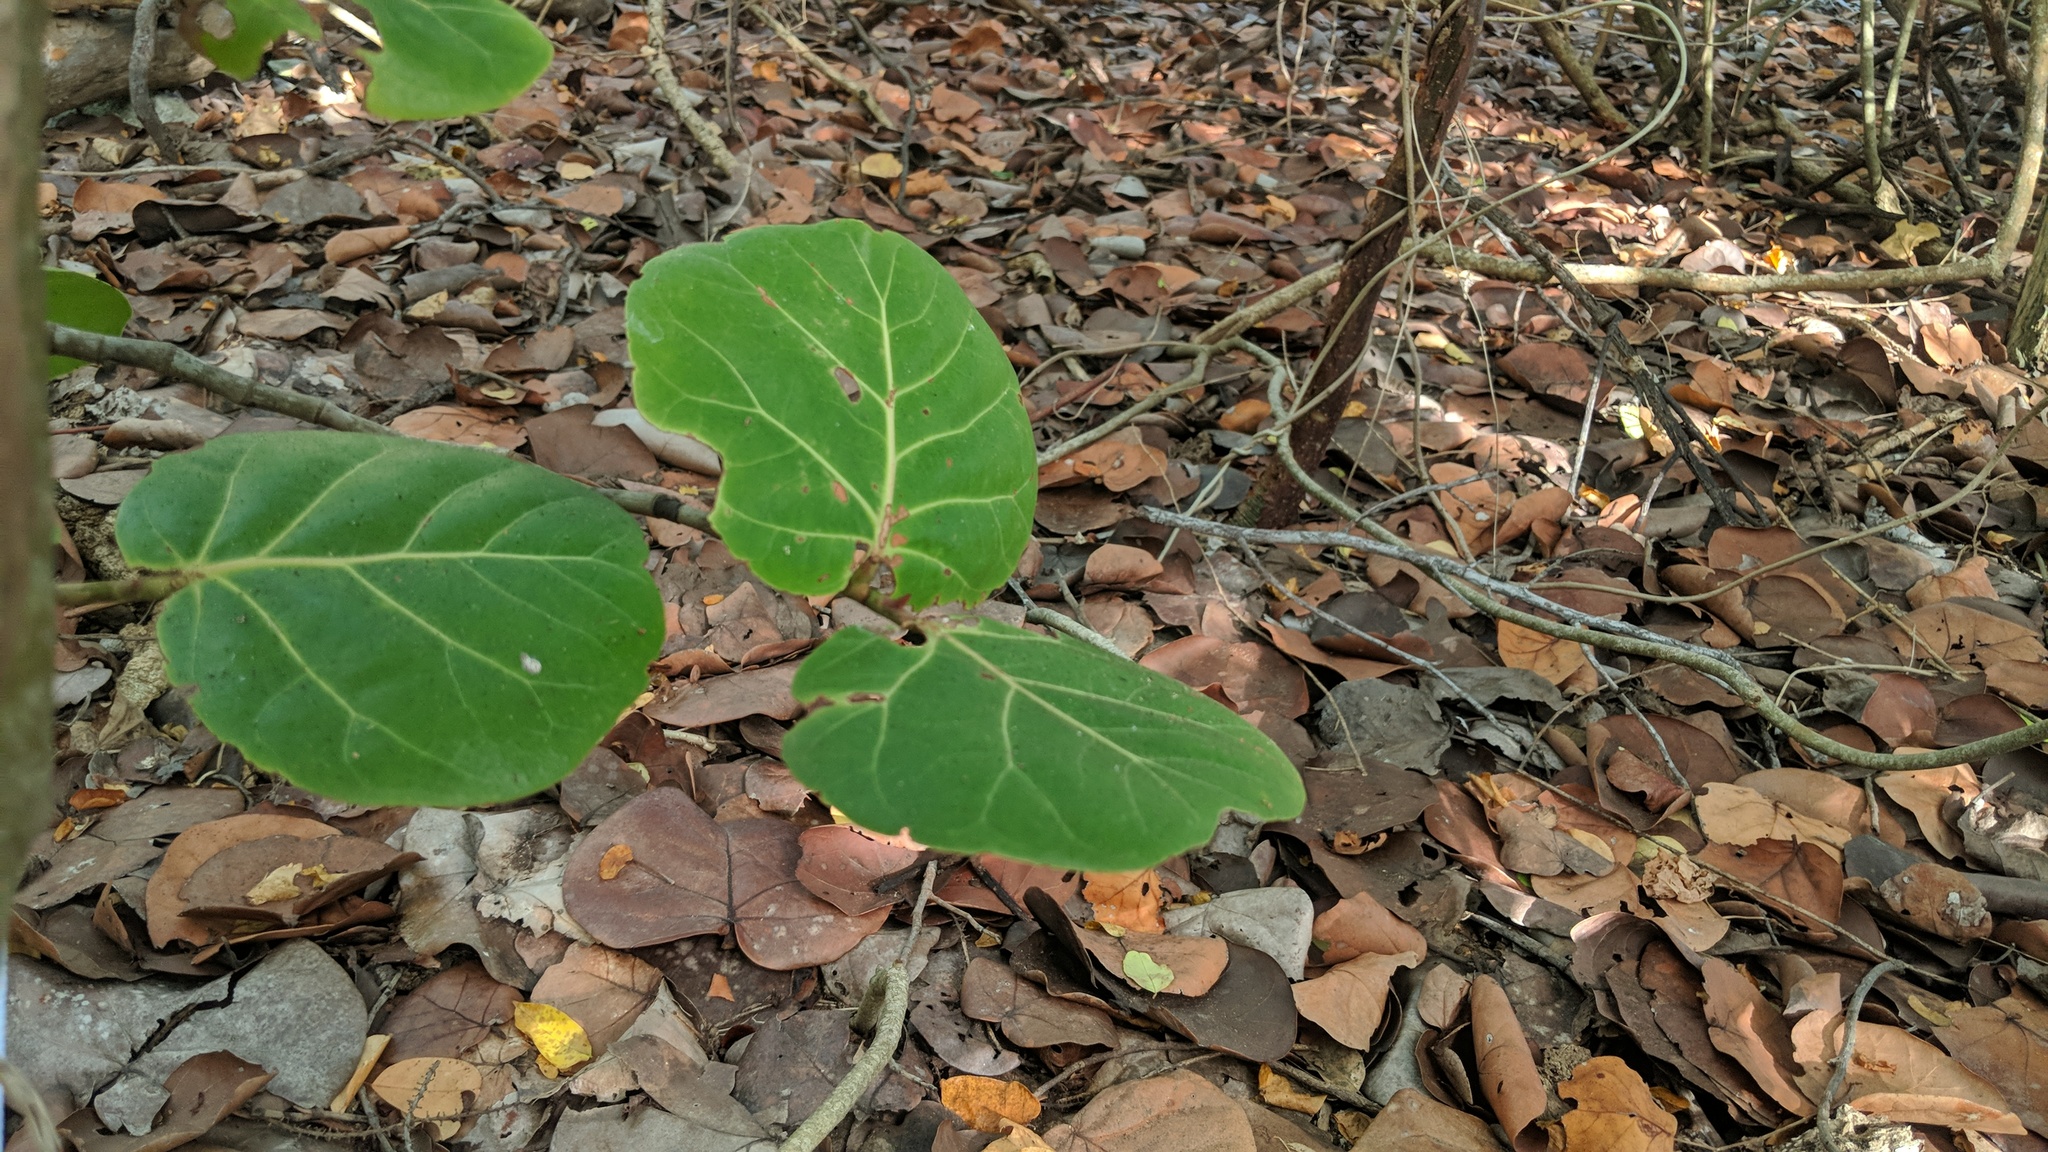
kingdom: Plantae
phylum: Tracheophyta
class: Magnoliopsida
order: Caryophyllales
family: Polygonaceae
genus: Coccoloba
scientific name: Coccoloba uvifera
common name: Seagrape
